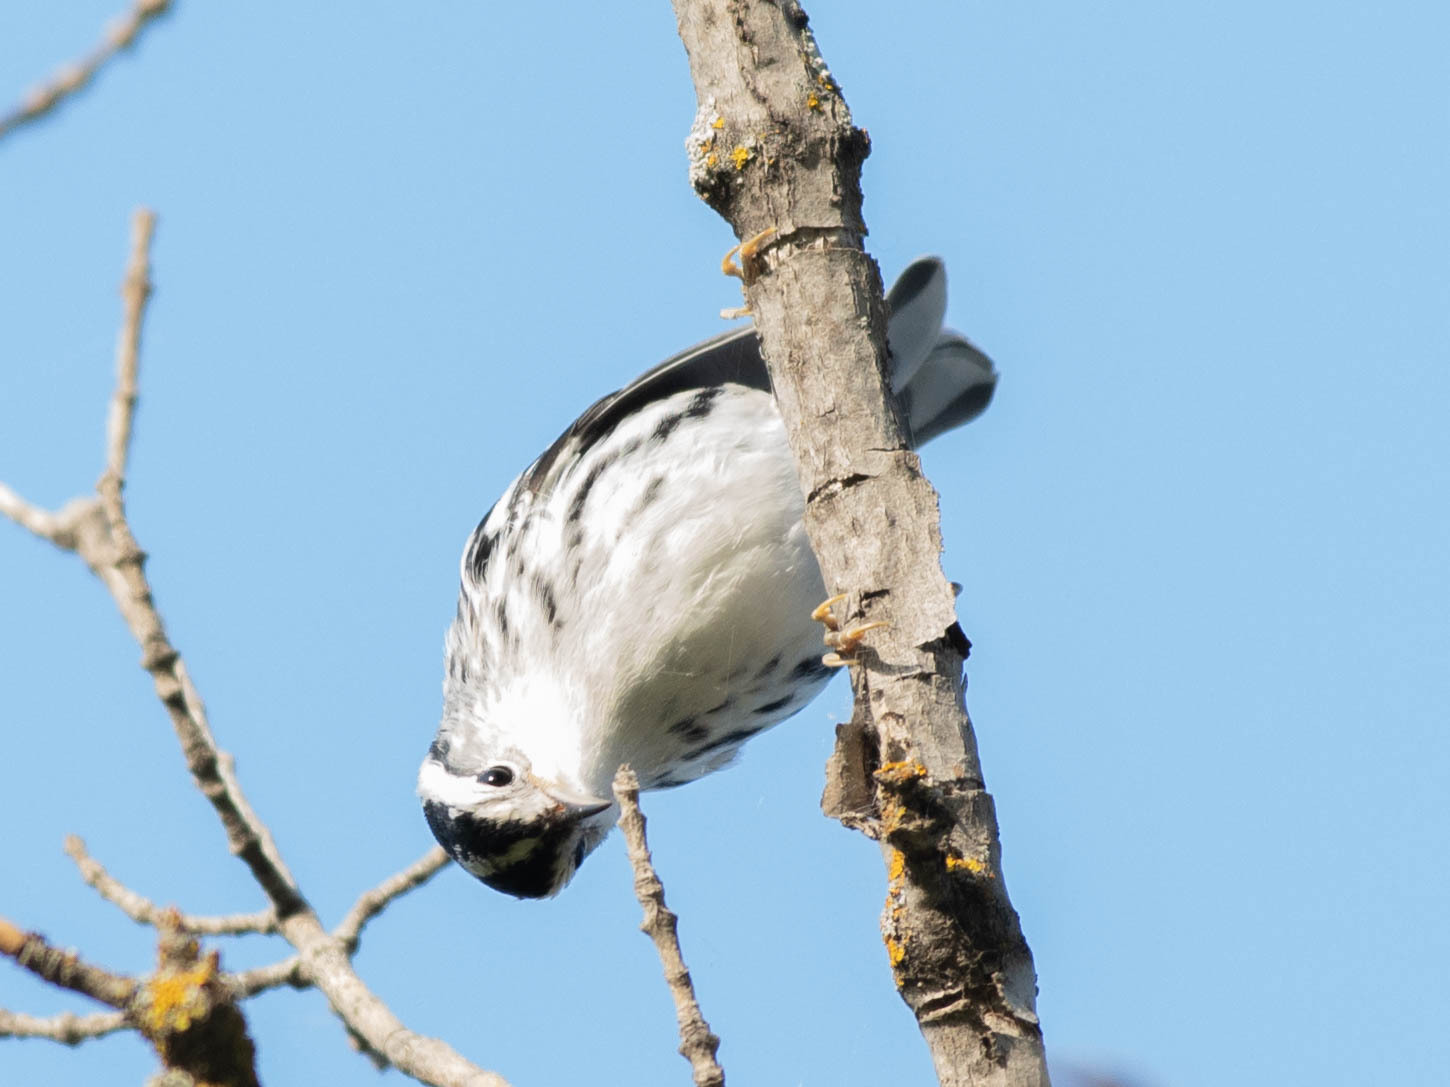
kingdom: Animalia
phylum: Chordata
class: Aves
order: Passeriformes
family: Parulidae
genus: Mniotilta
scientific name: Mniotilta varia
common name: Black-and-white warbler
